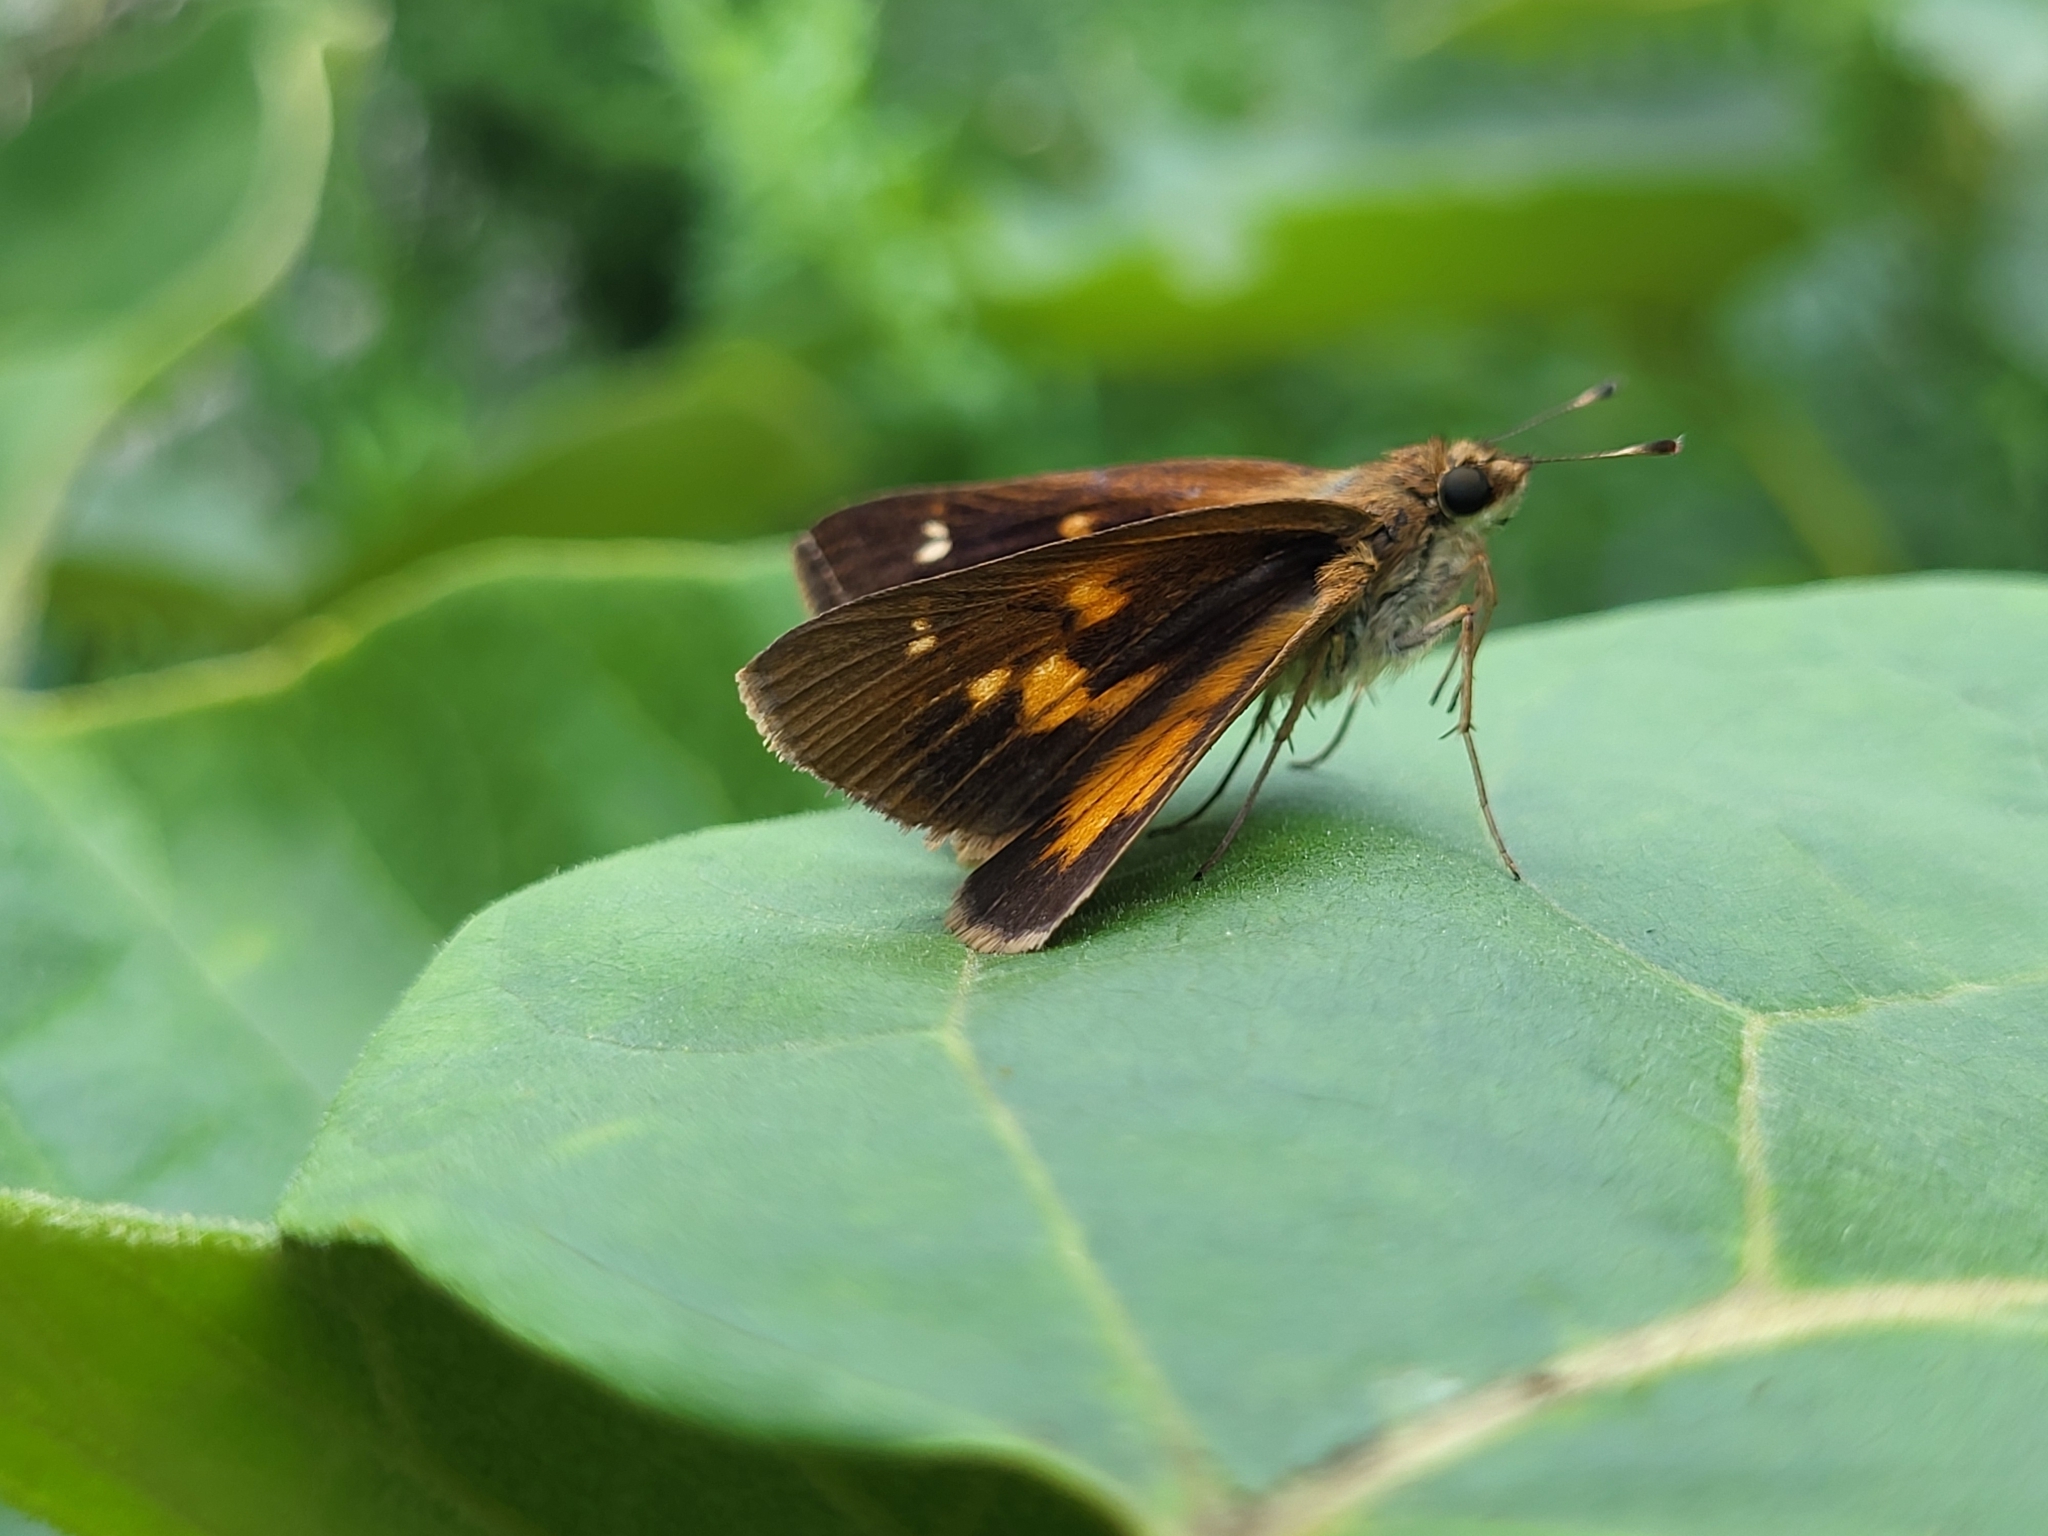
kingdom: Animalia
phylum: Arthropoda
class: Insecta
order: Lepidoptera
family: Hesperiidae
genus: Poanes
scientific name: Poanes viator
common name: Broad-winged skipper
